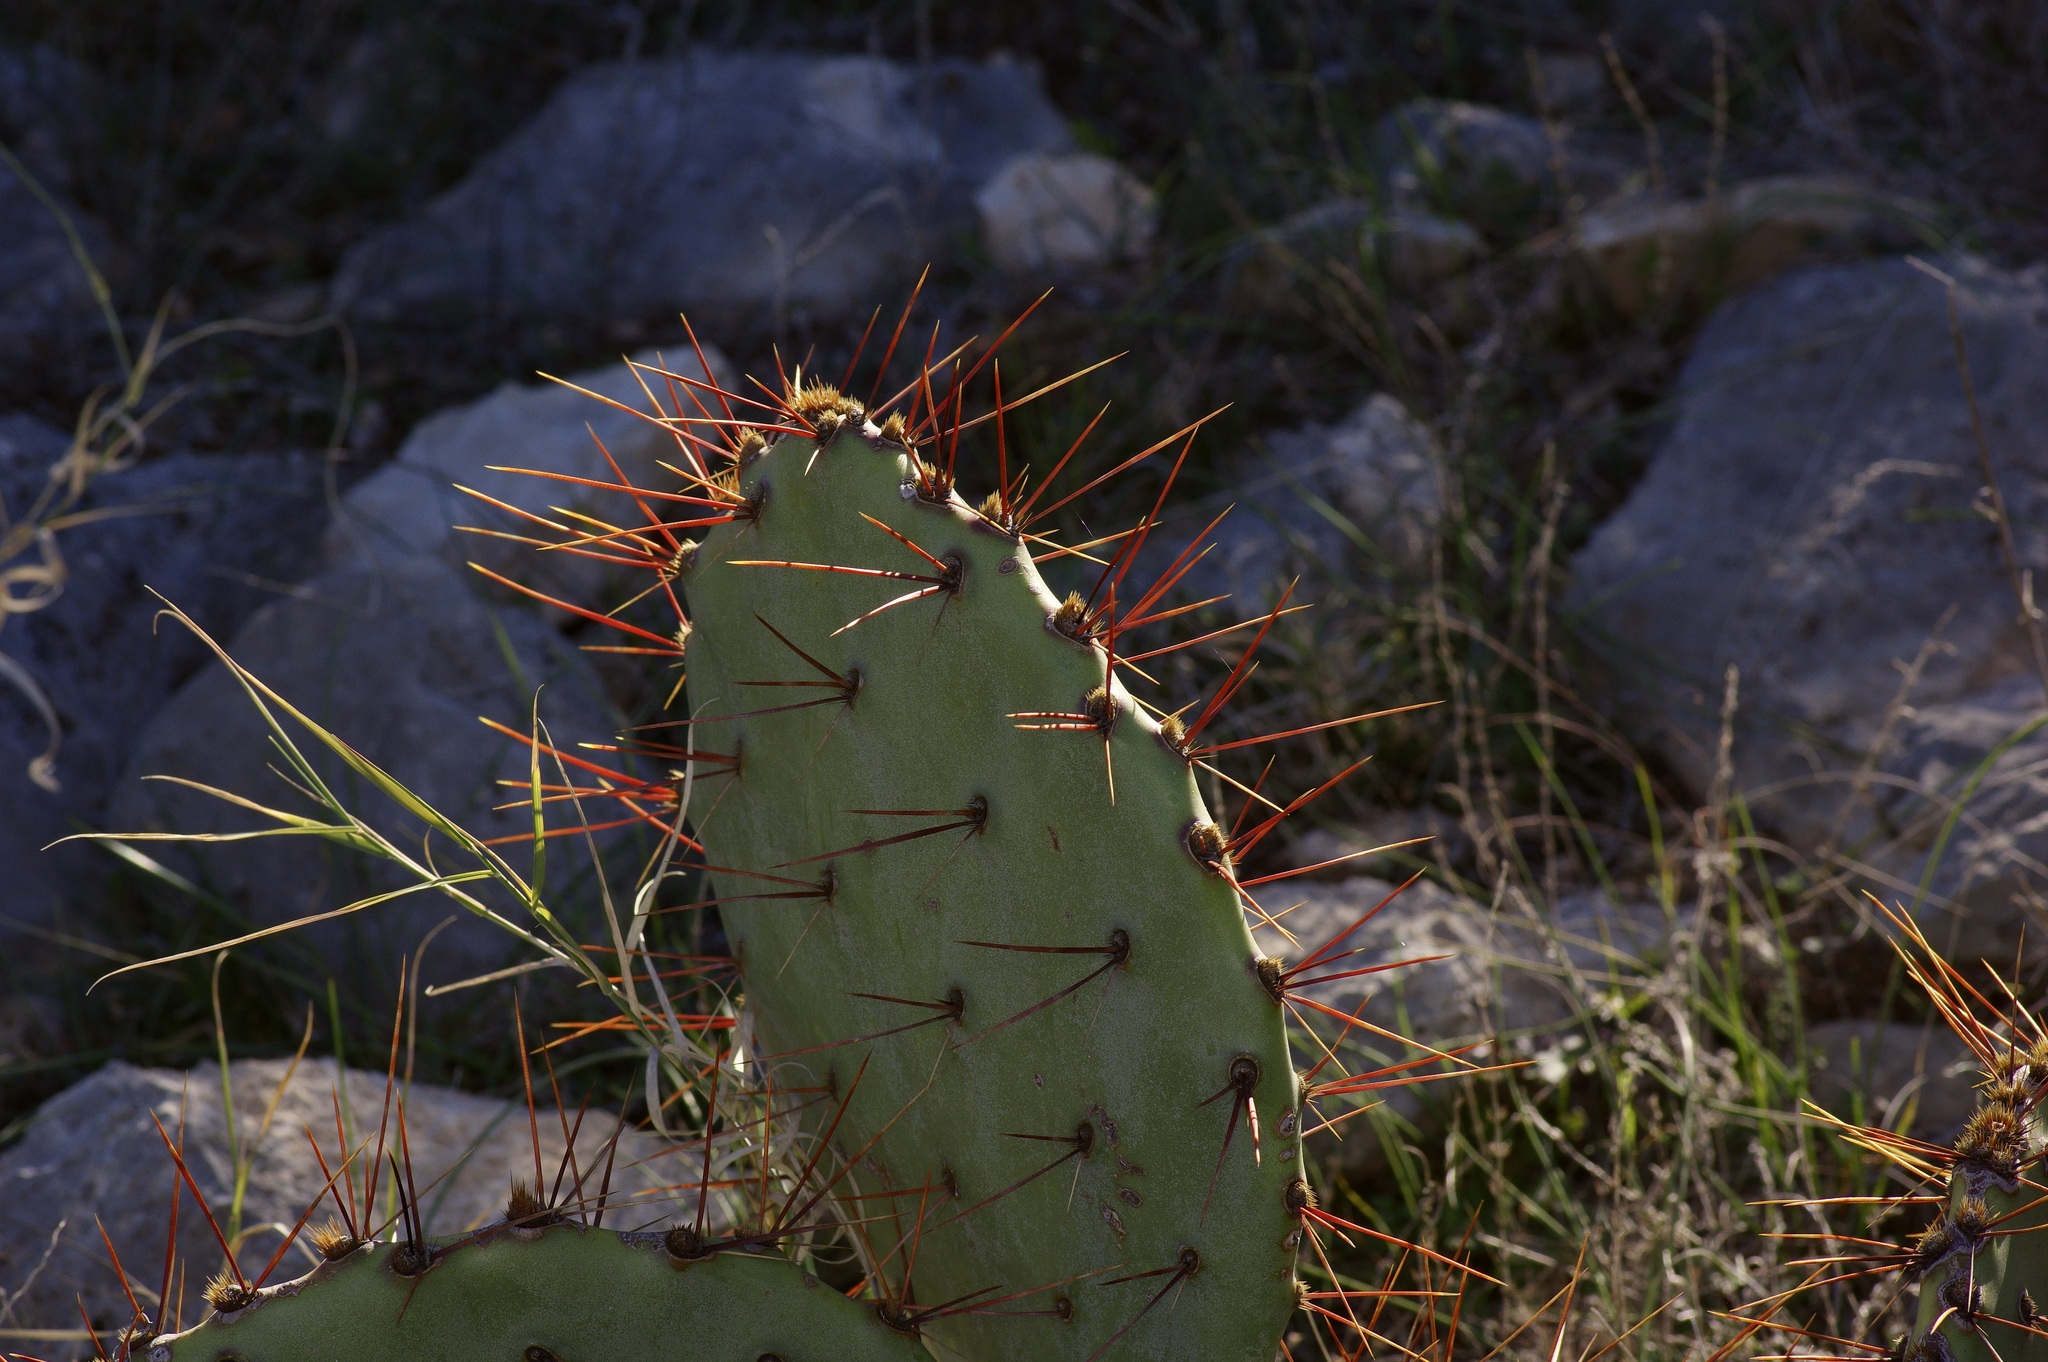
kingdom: Plantae
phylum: Tracheophyta
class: Magnoliopsida
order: Caryophyllales
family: Cactaceae
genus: Opuntia
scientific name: Opuntia macrocentra
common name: Purple prickly-pear
